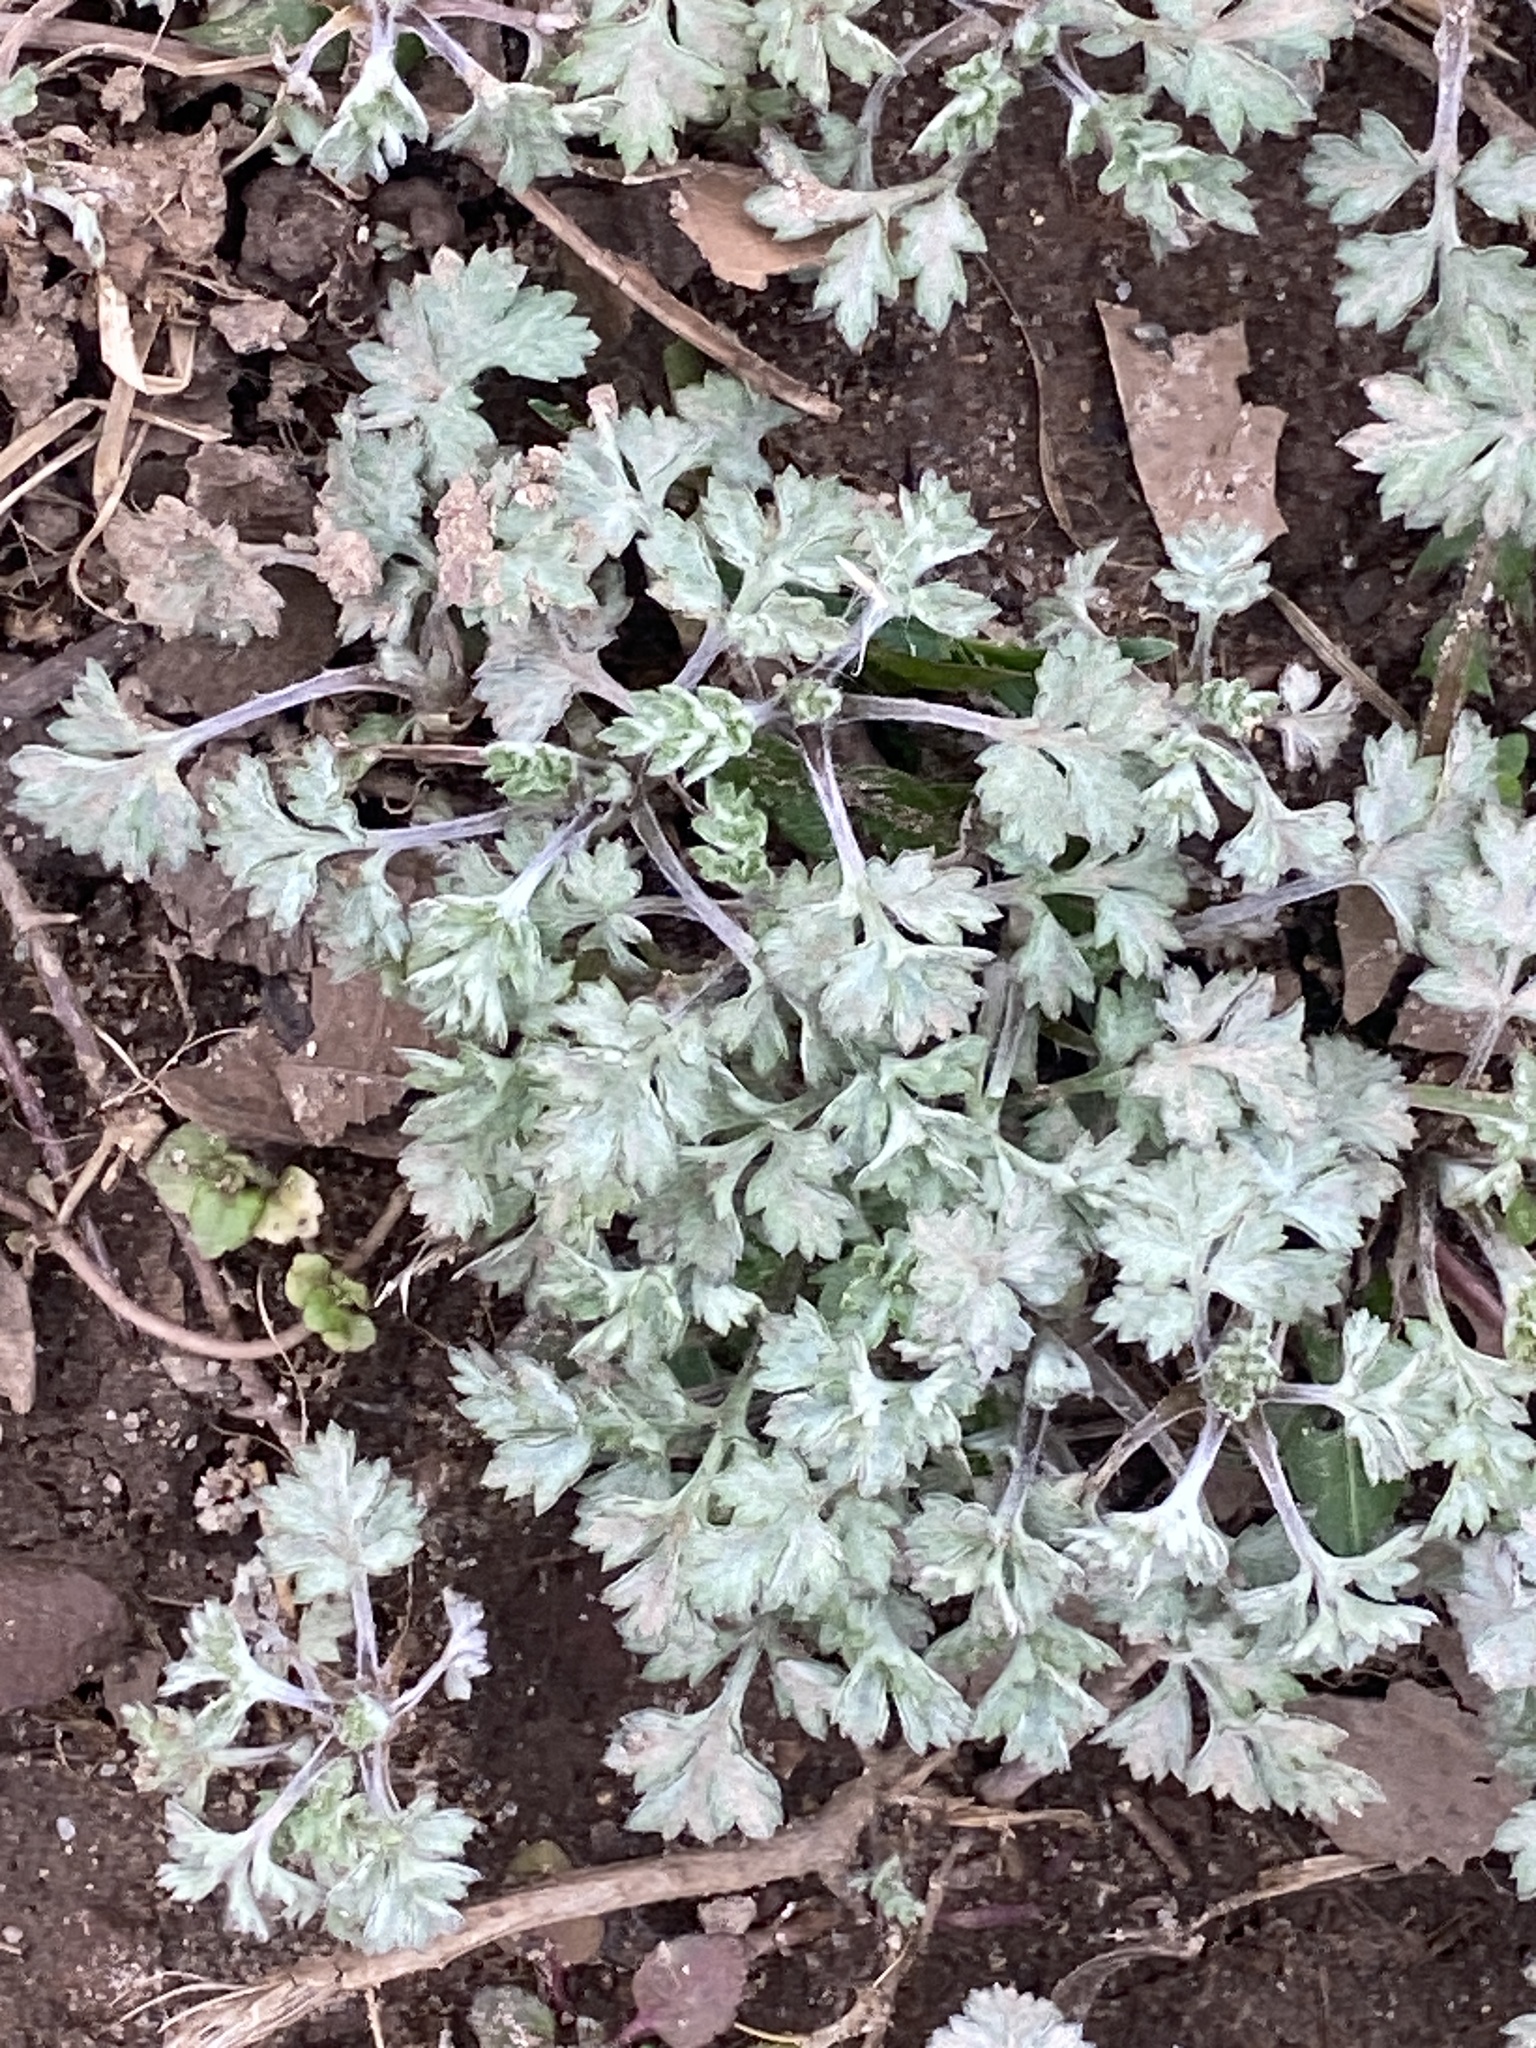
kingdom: Plantae
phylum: Tracheophyta
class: Magnoliopsida
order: Asterales
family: Asteraceae
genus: Artemisia
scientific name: Artemisia vulgaris
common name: Mugwort
